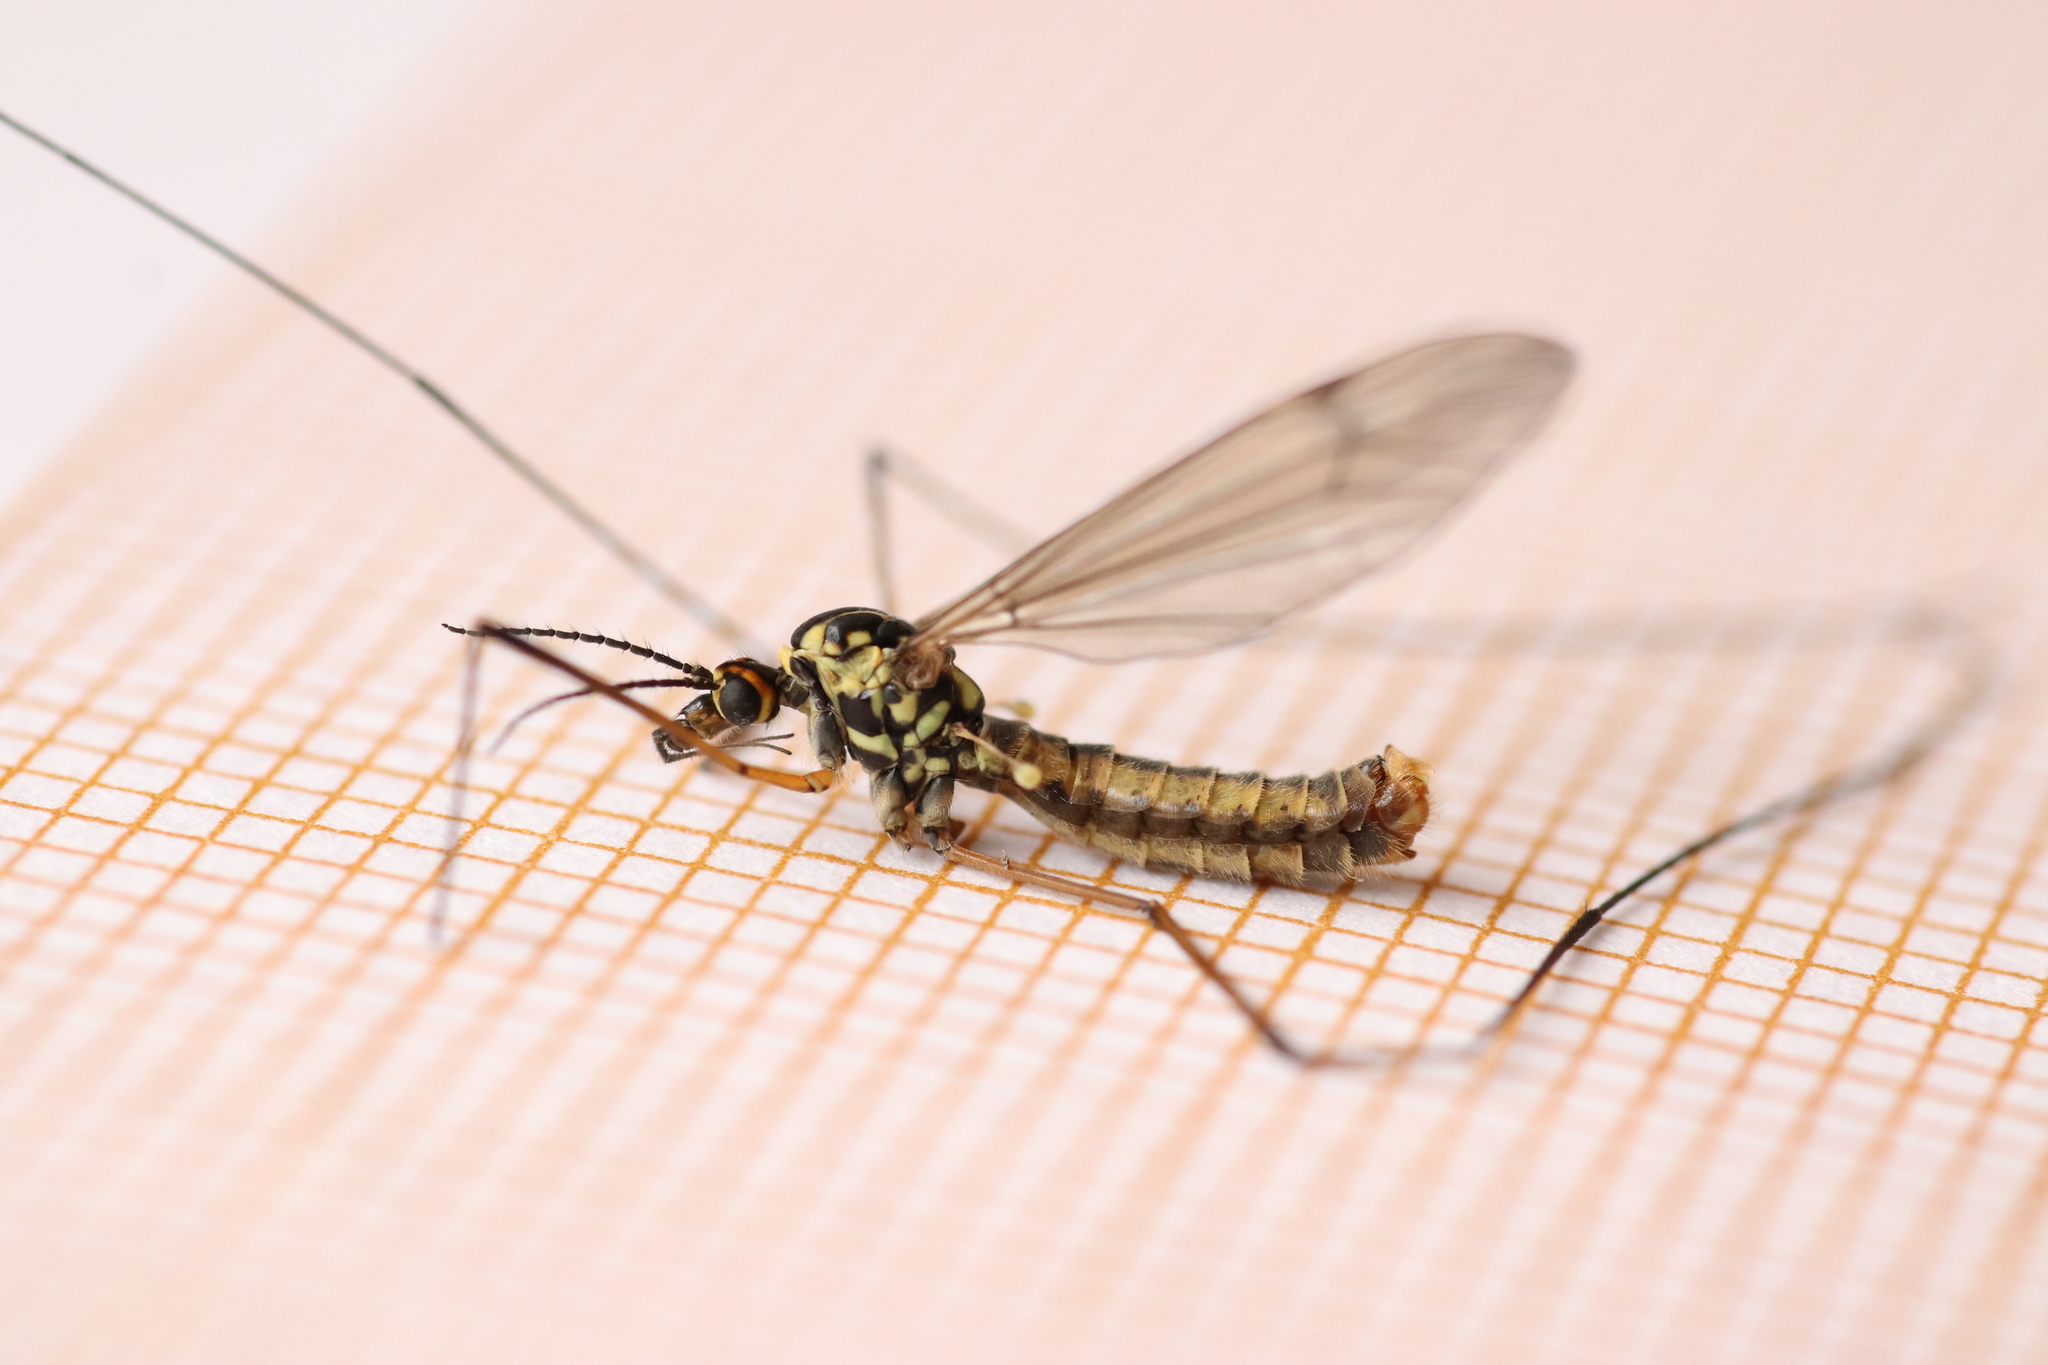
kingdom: Animalia
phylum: Arthropoda
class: Insecta
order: Diptera
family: Tipulidae
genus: Nephrotoma
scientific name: Nephrotoma appendiculata
